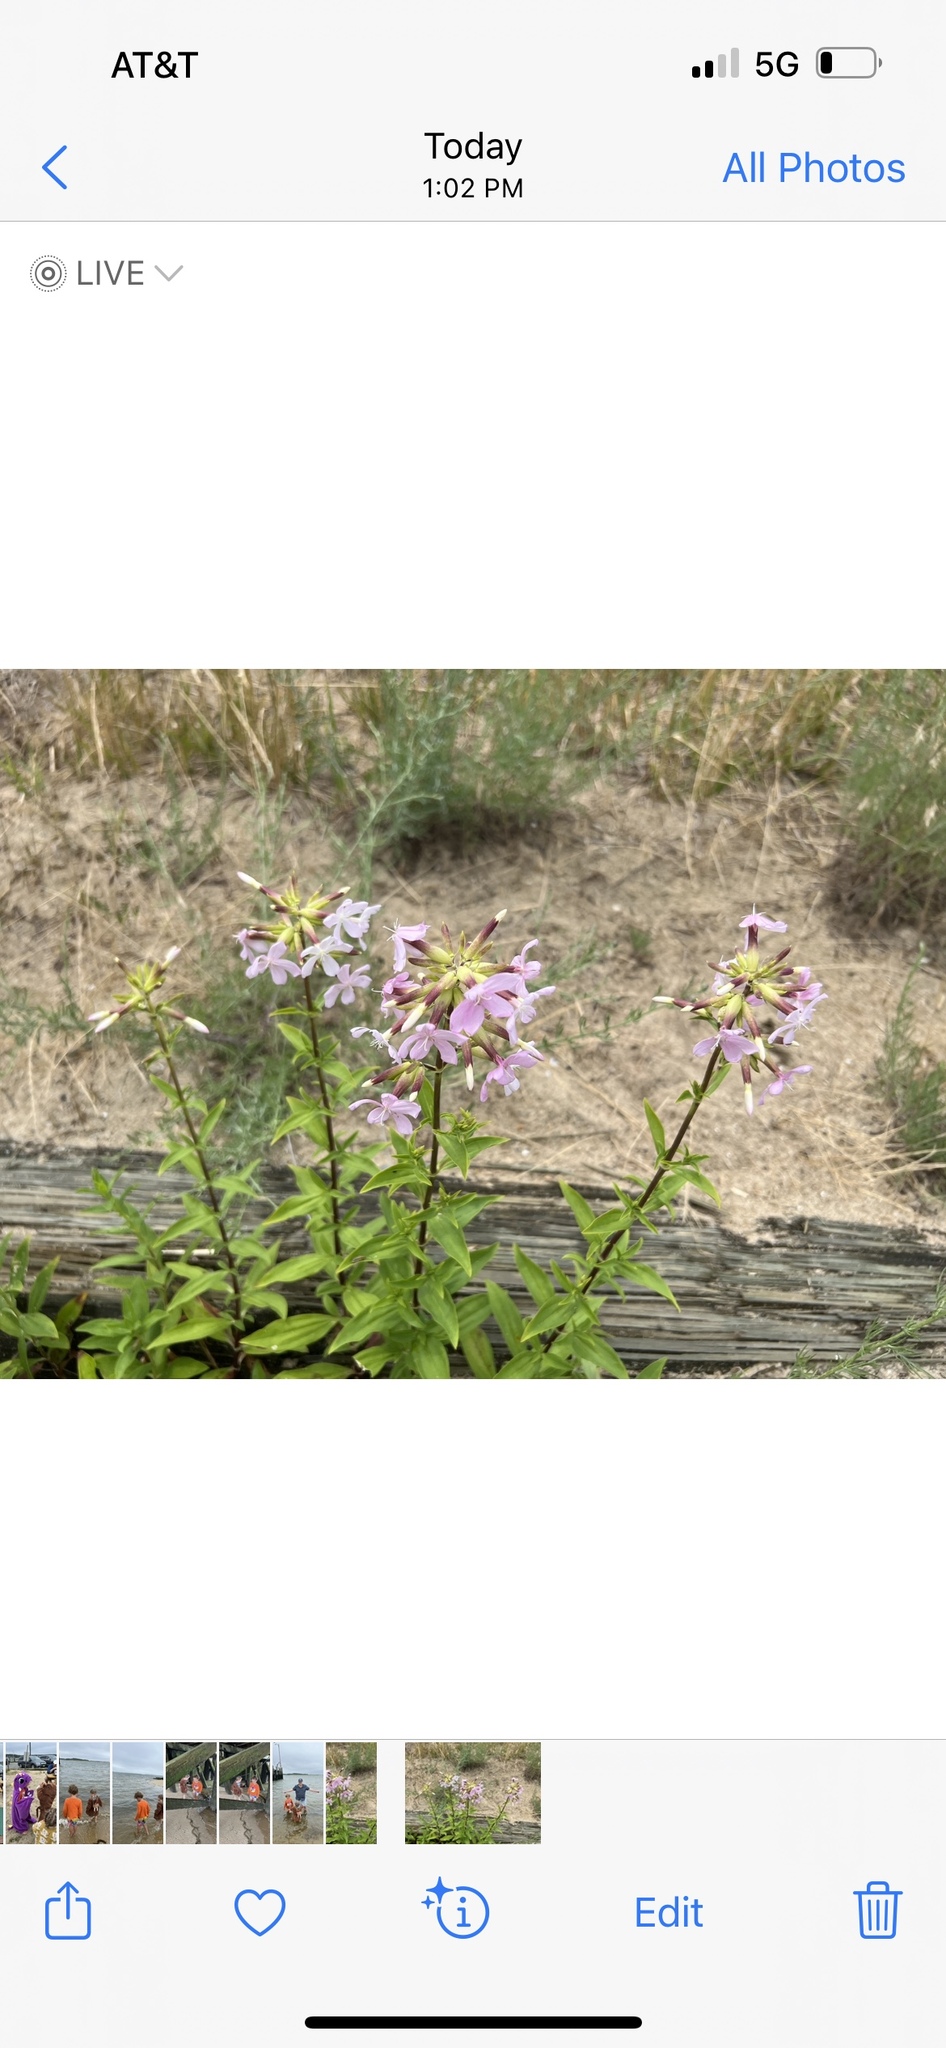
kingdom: Plantae
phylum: Tracheophyta
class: Magnoliopsida
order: Caryophyllales
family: Caryophyllaceae
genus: Saponaria
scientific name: Saponaria officinalis
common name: Soapwort
